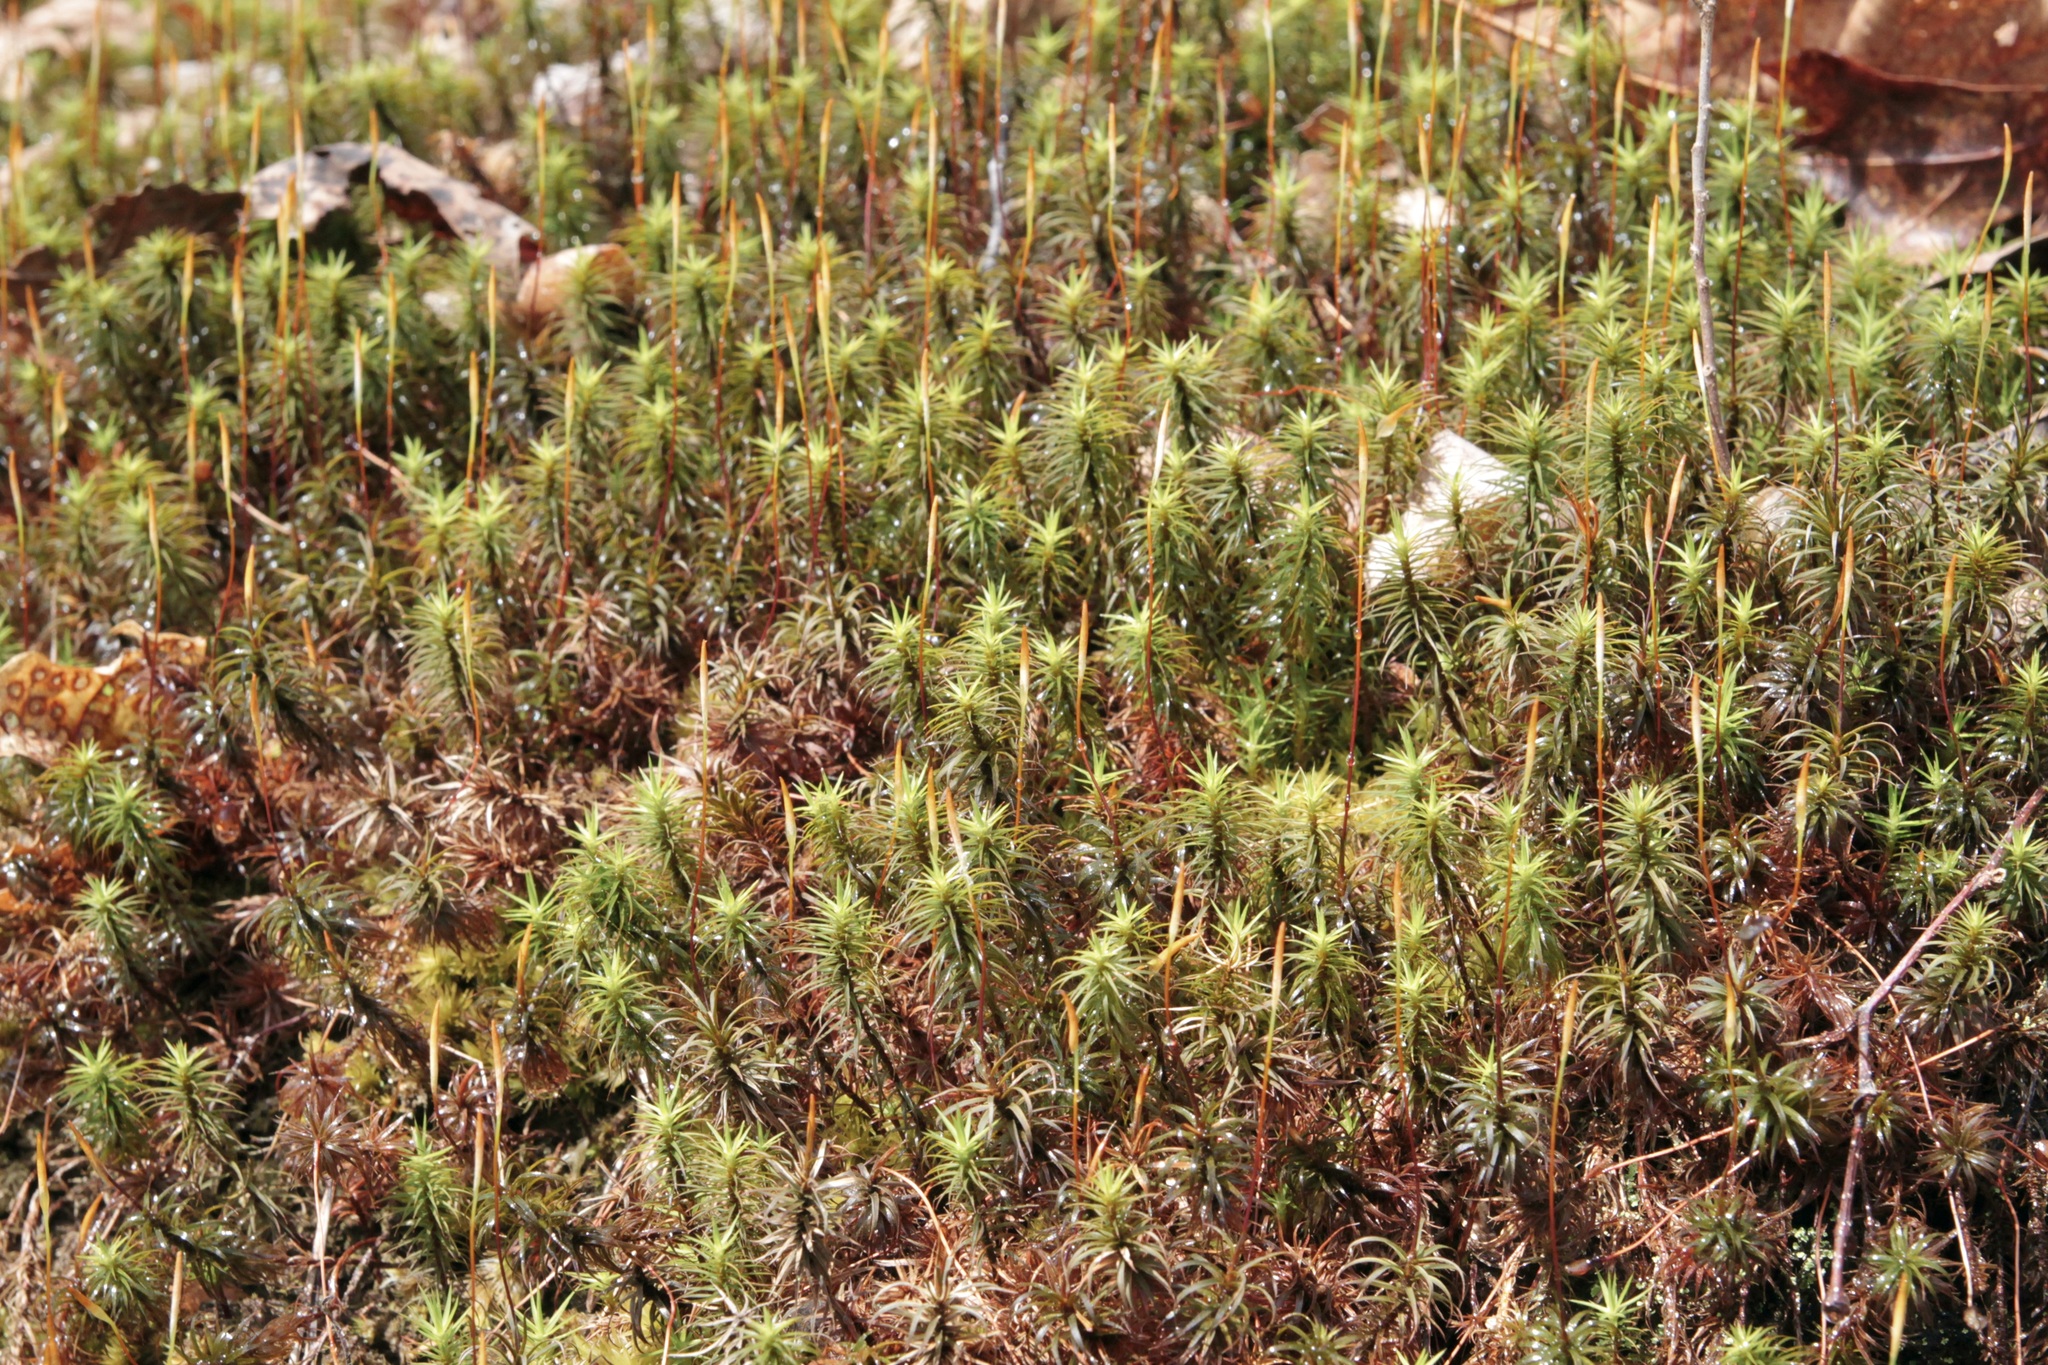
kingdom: Plantae
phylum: Bryophyta
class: Polytrichopsida
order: Polytrichales
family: Polytrichaceae
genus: Polytrichum
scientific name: Polytrichum commune
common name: Common haircap
